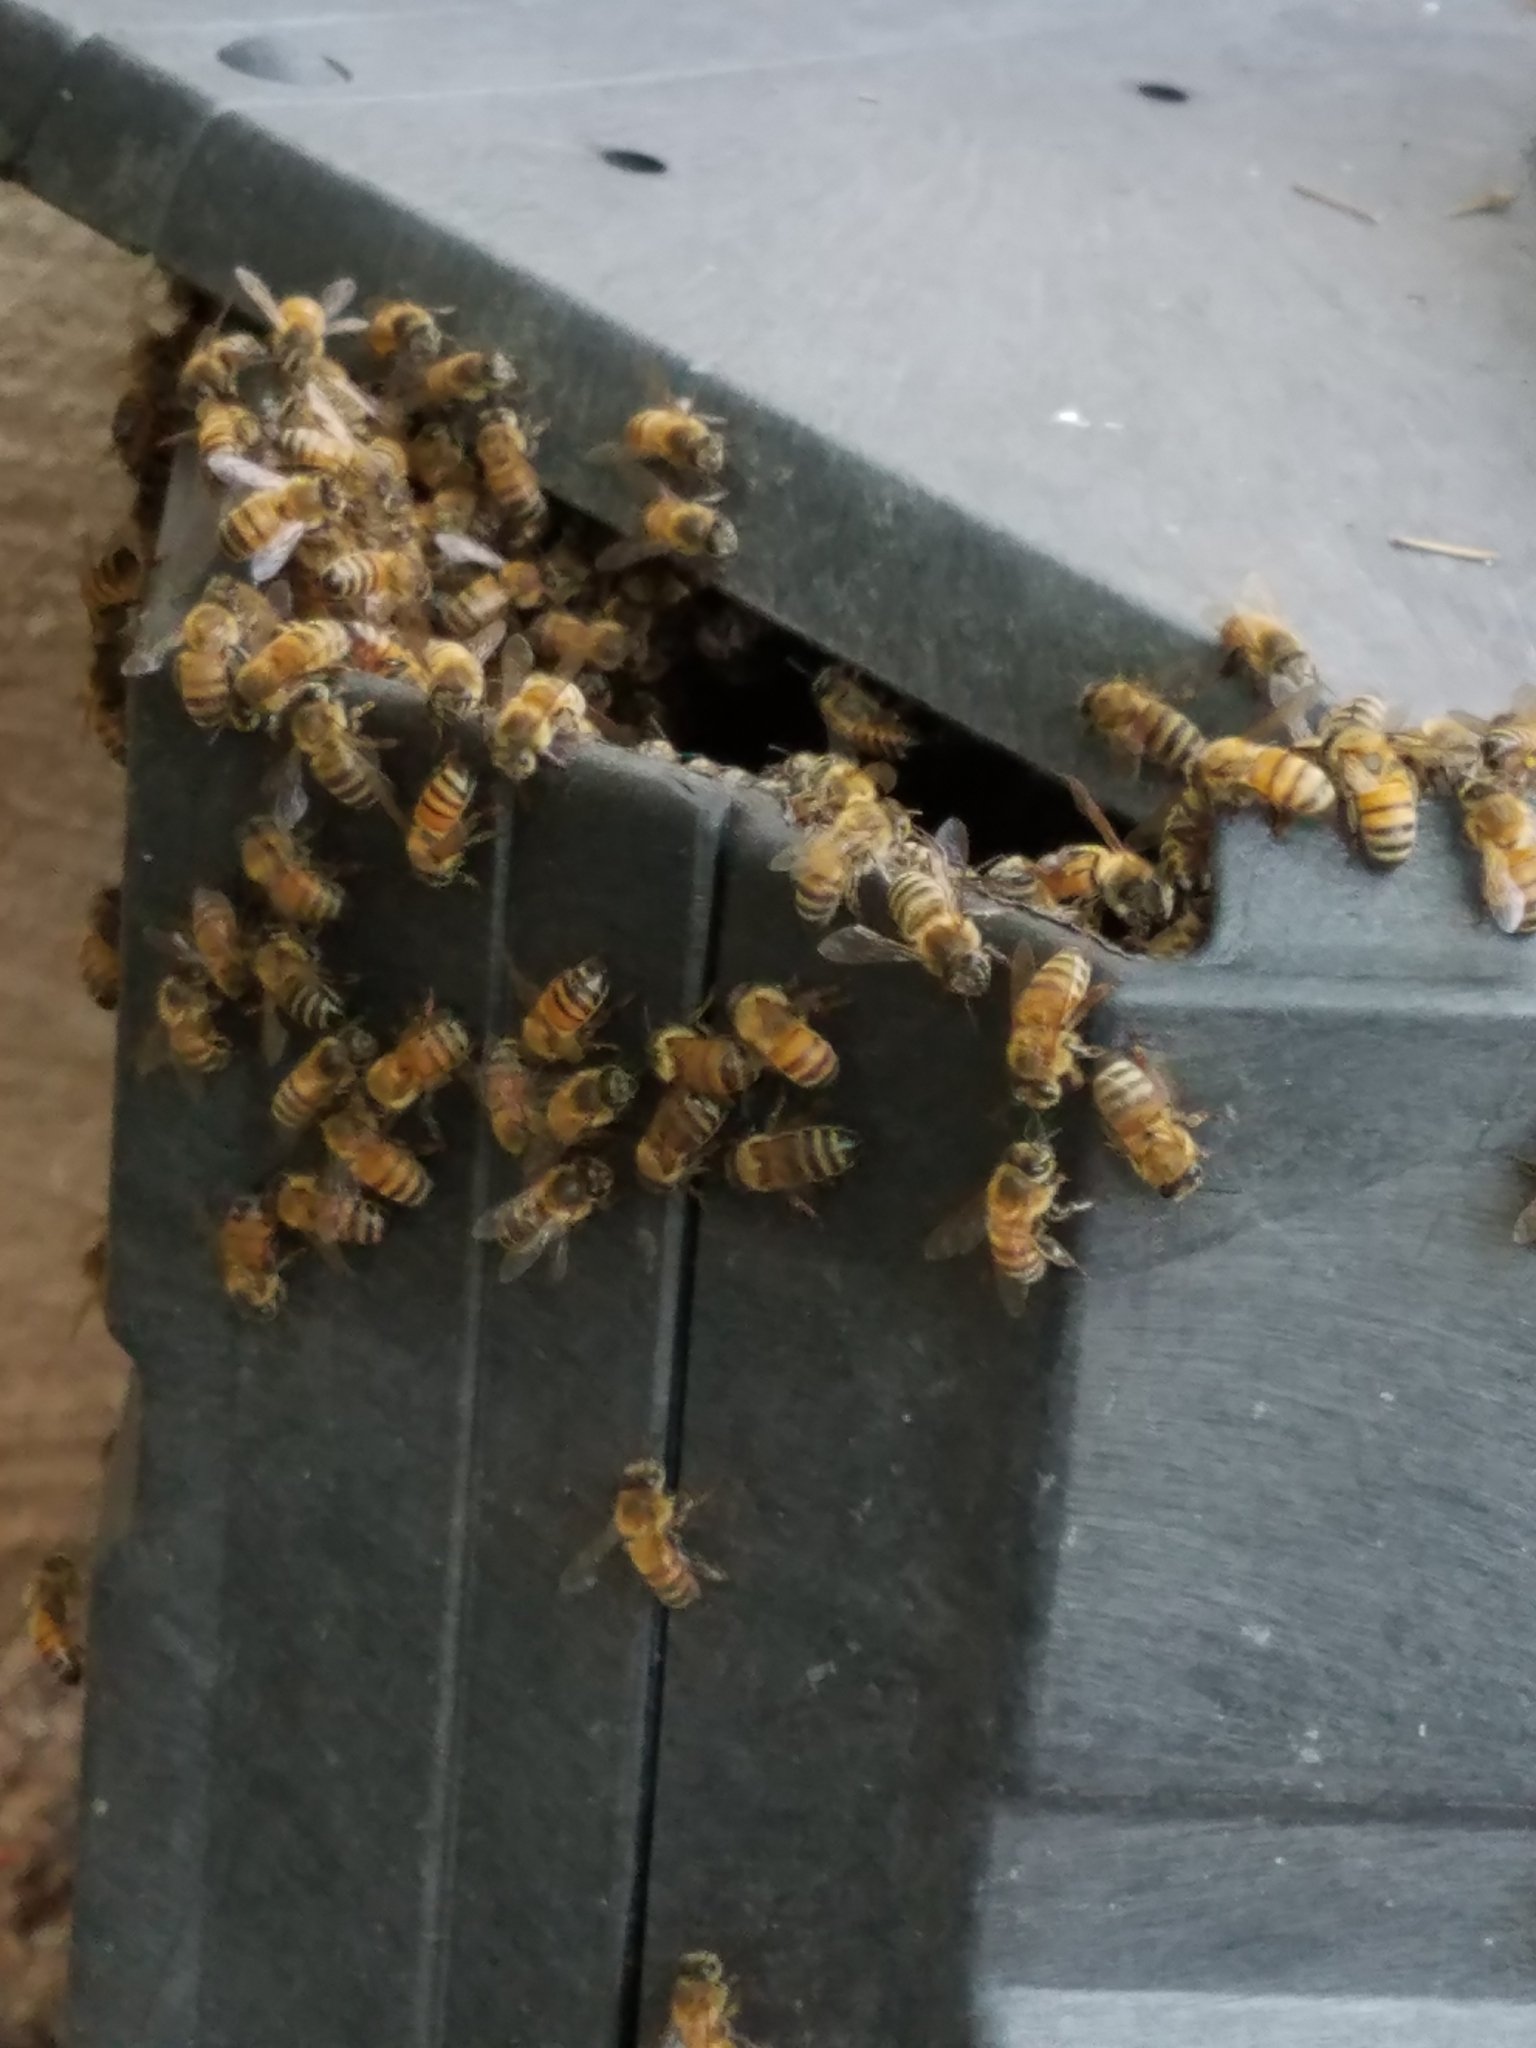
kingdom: Animalia
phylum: Arthropoda
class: Insecta
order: Hymenoptera
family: Apidae
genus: Apis
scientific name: Apis mellifera
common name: Honey bee
